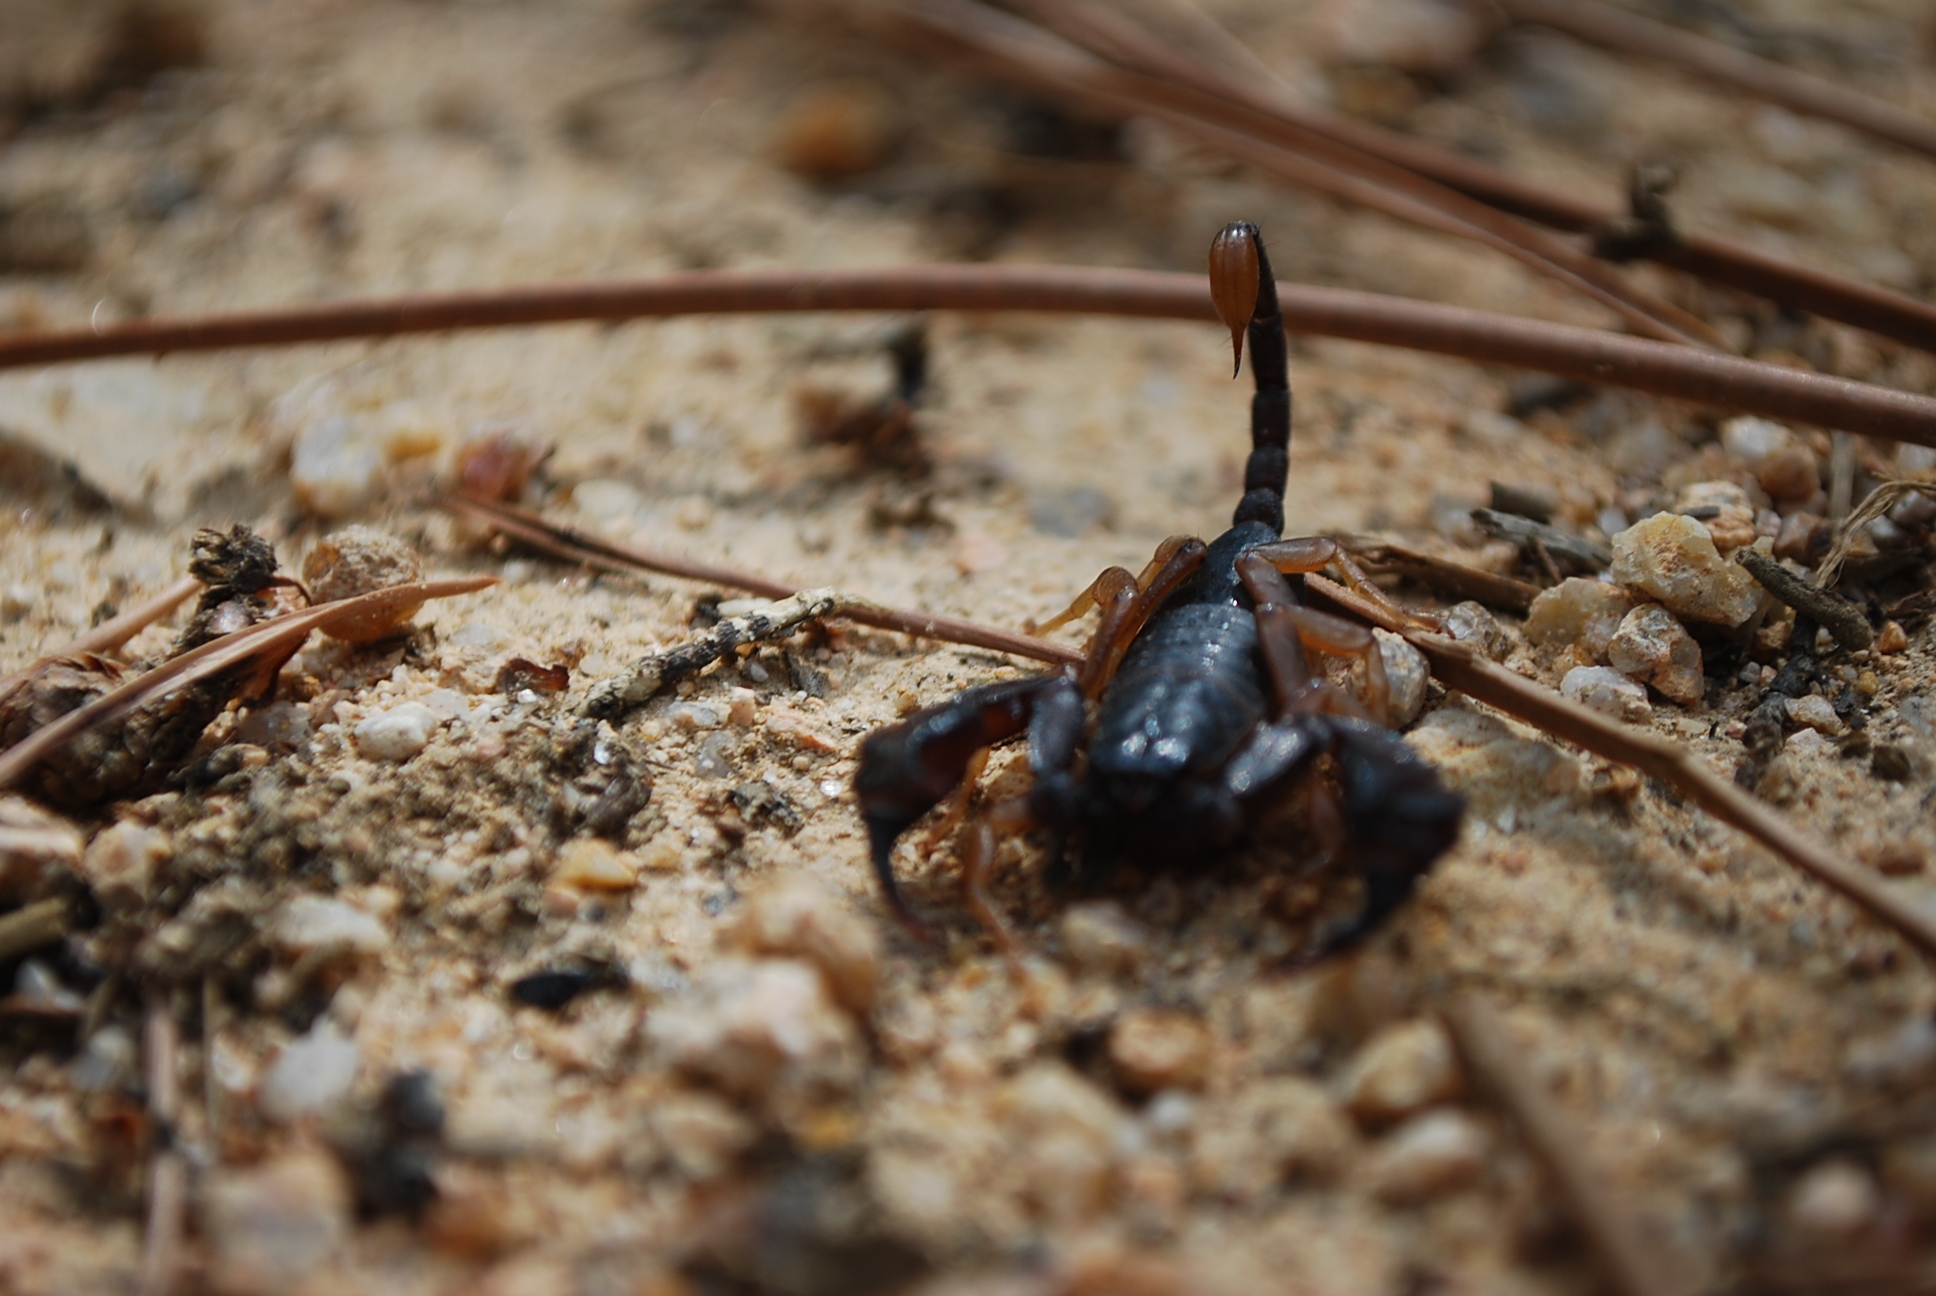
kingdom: Animalia
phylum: Arthropoda
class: Arachnida
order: Scorpiones
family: Euscorpiidae
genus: Euscorpius
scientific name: Euscorpius flavicaudis
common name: European yellow-tailed scorpion
